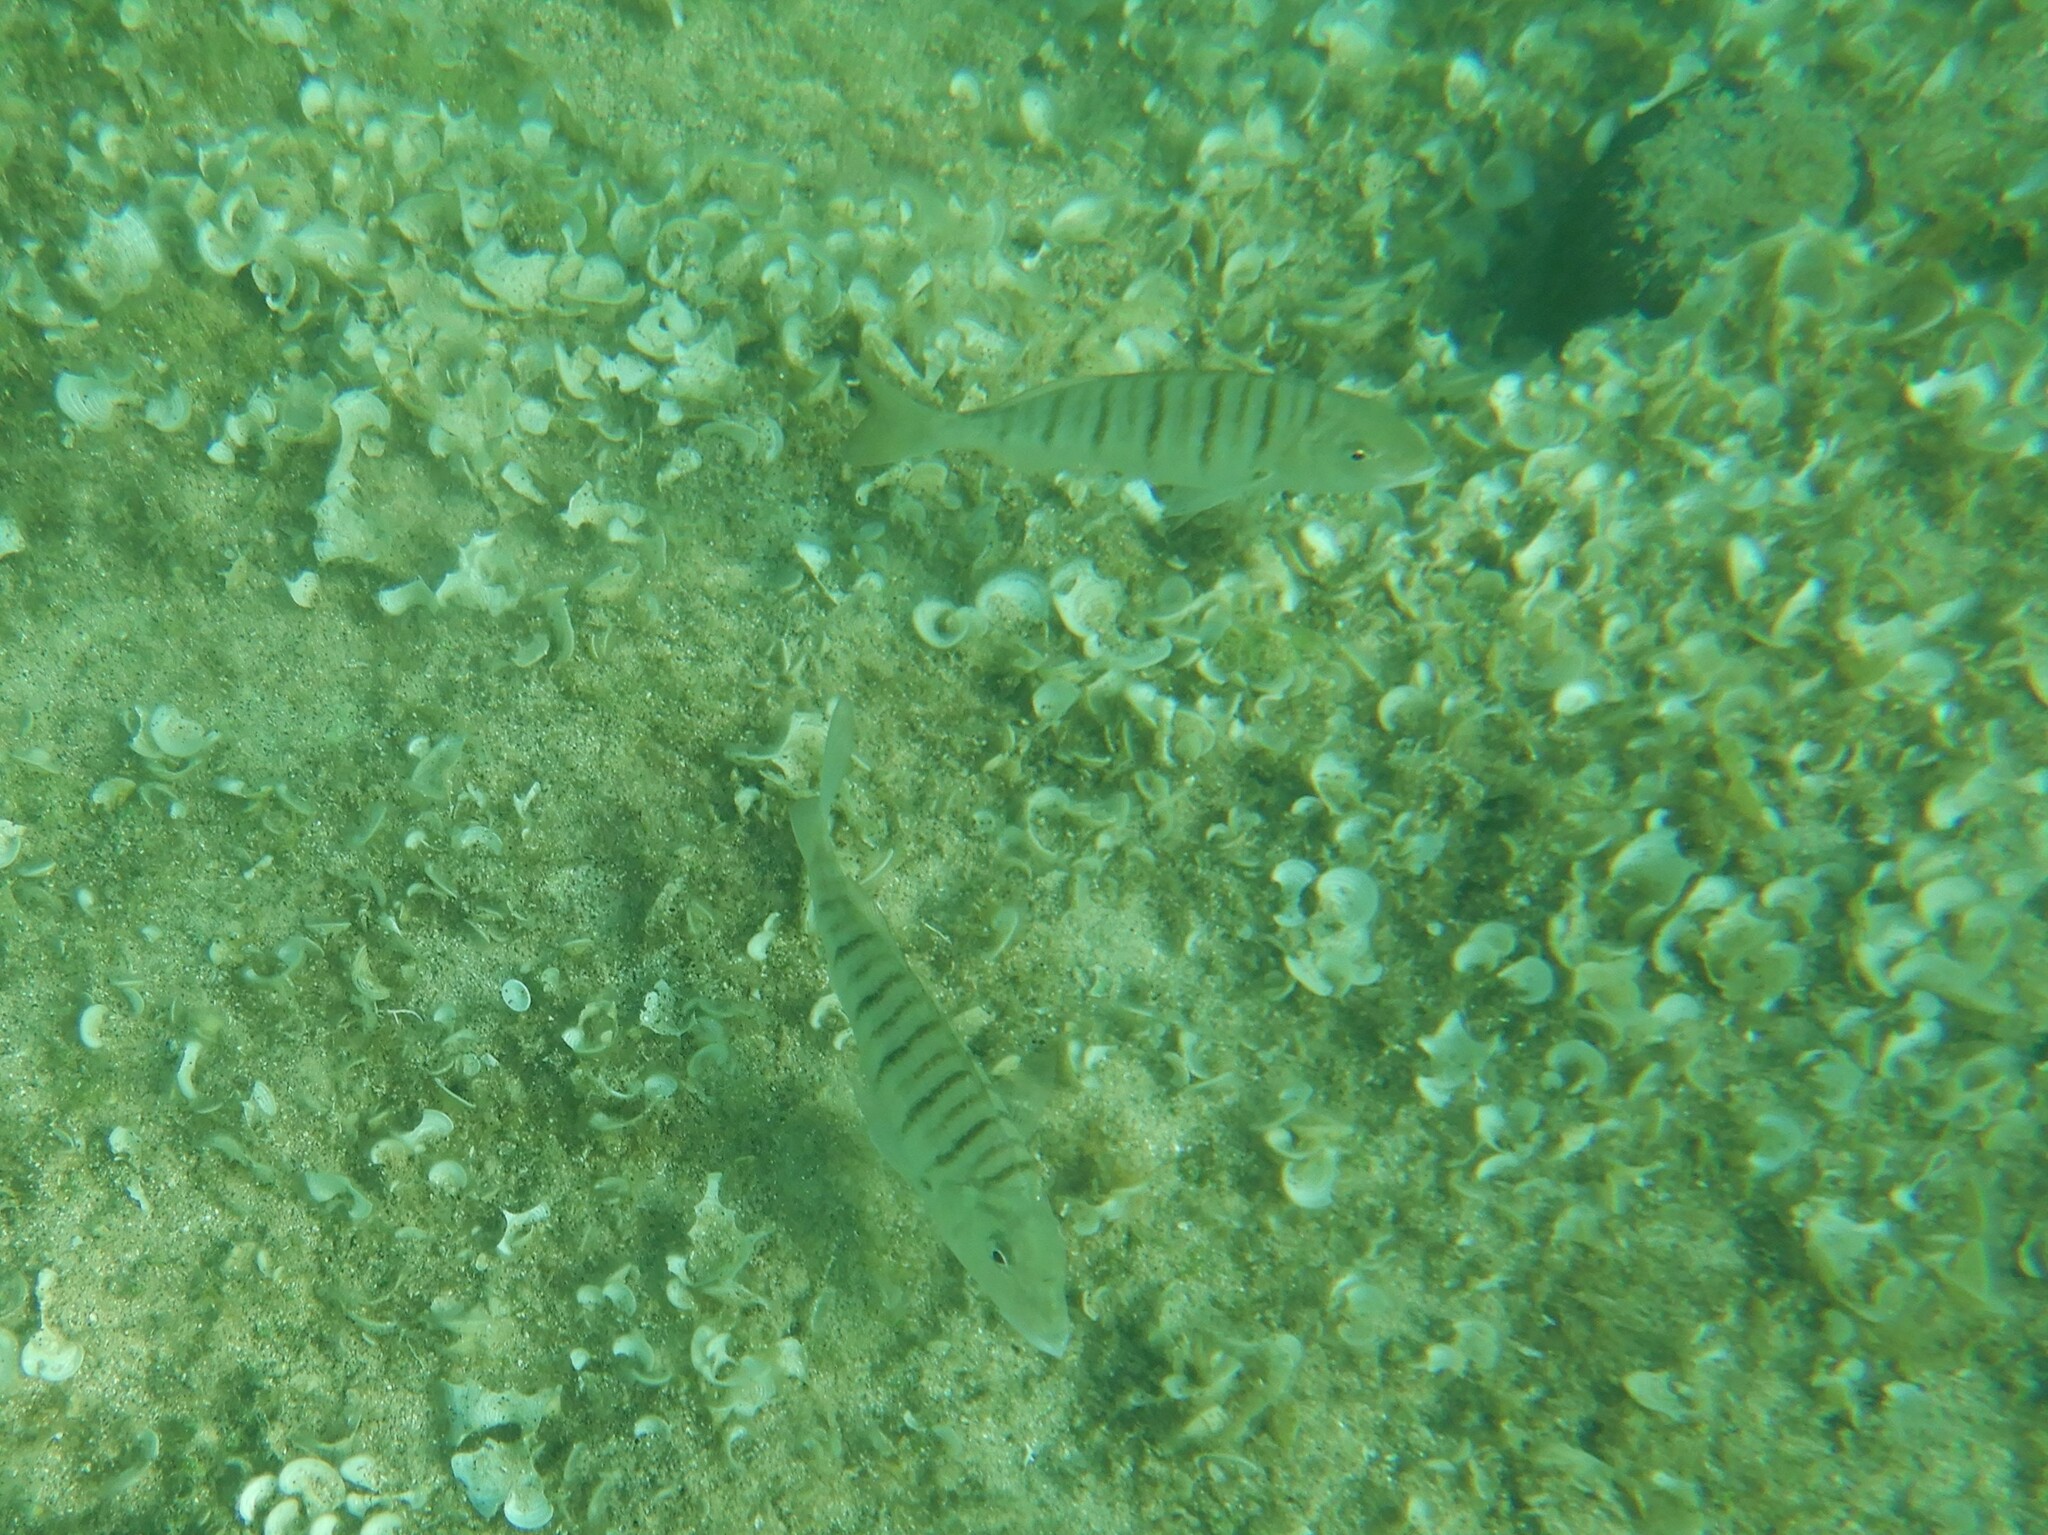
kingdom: Animalia
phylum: Chordata
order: Perciformes
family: Sparidae
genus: Lithognathus
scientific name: Lithognathus mormyrus
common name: Sand steenbras
